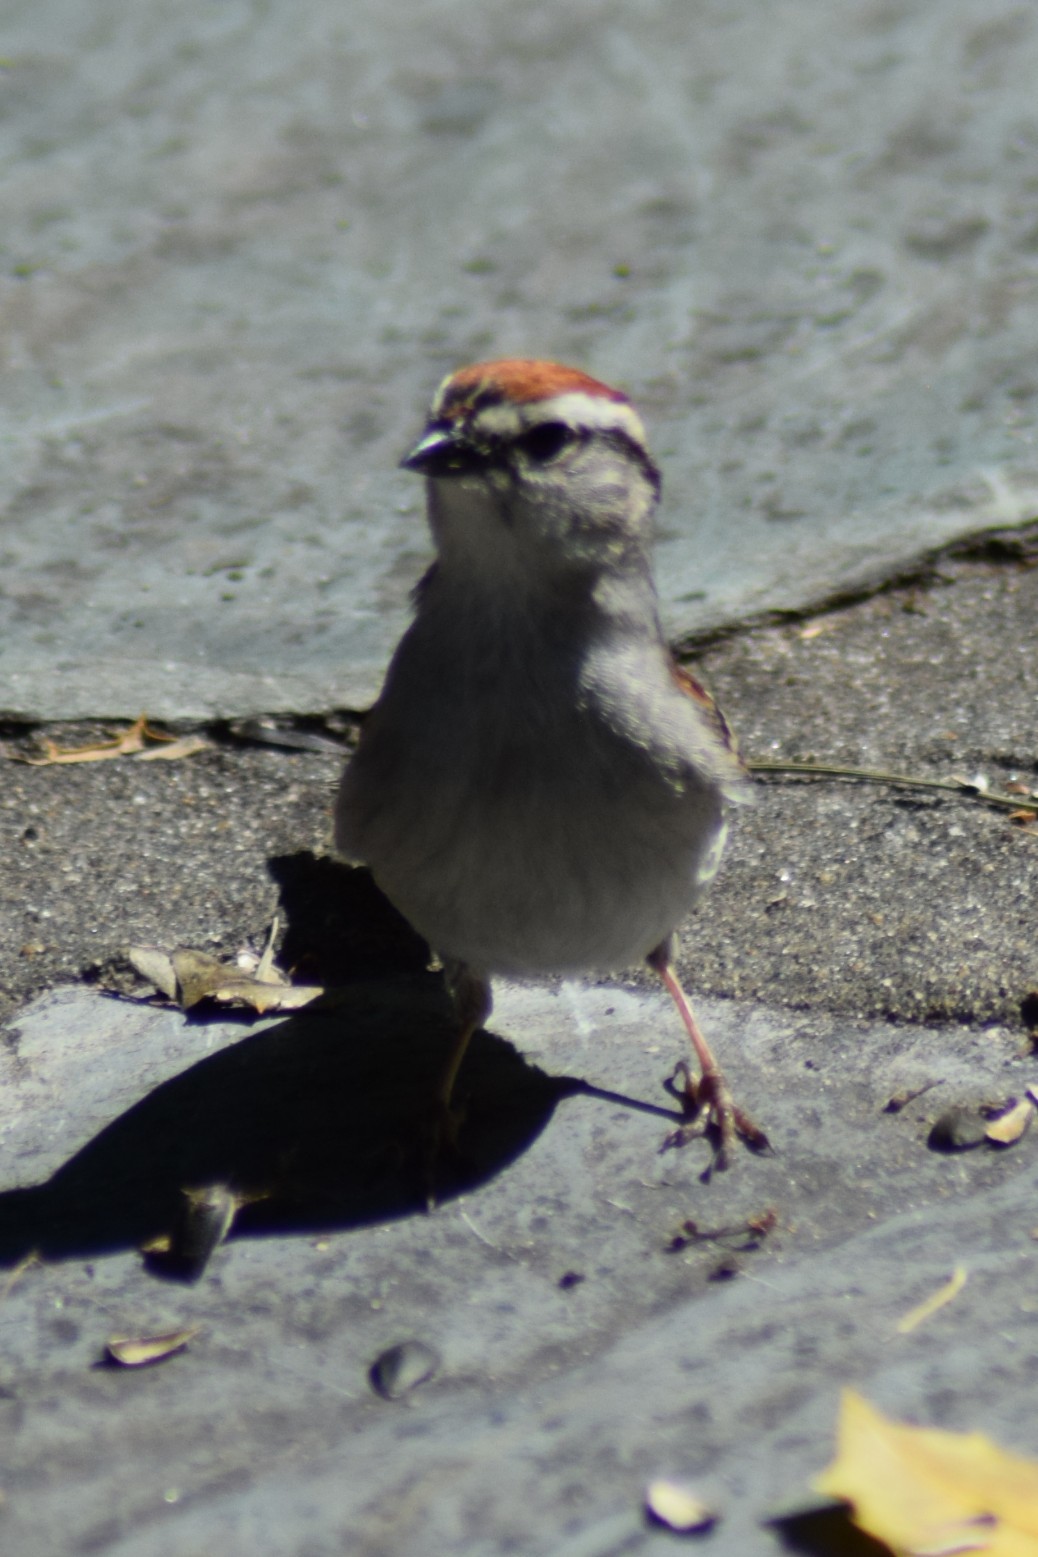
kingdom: Animalia
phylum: Chordata
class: Aves
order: Passeriformes
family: Passerellidae
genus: Spizella
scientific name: Spizella passerina
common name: Chipping sparrow
